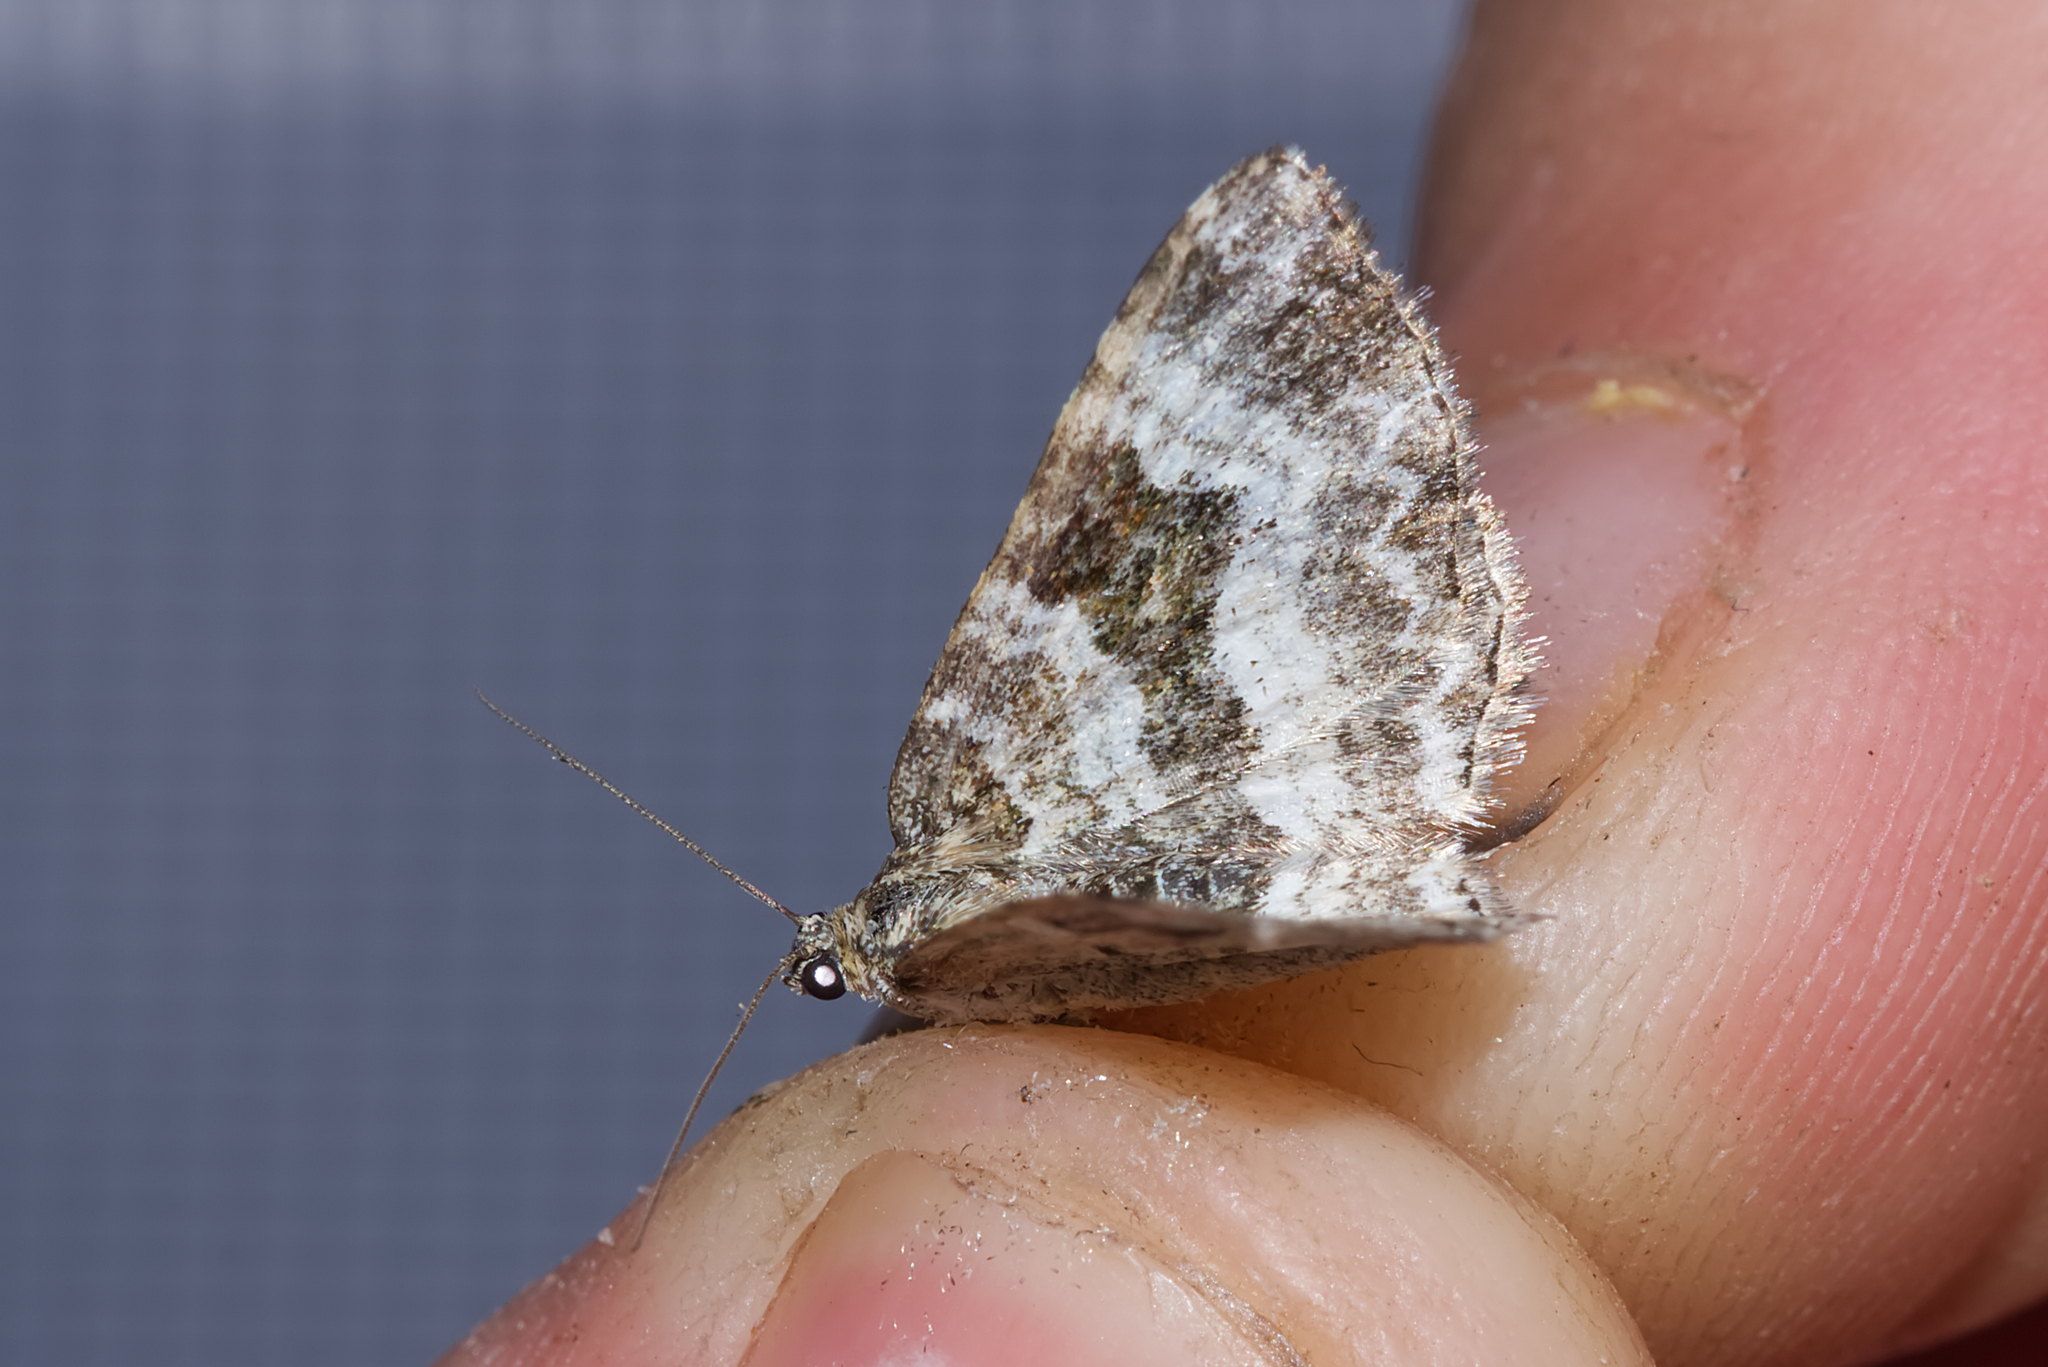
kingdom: Animalia
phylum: Arthropoda
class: Insecta
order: Lepidoptera
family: Geometridae
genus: Epirrhoe
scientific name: Epirrhoe alternata
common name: Common carpet
